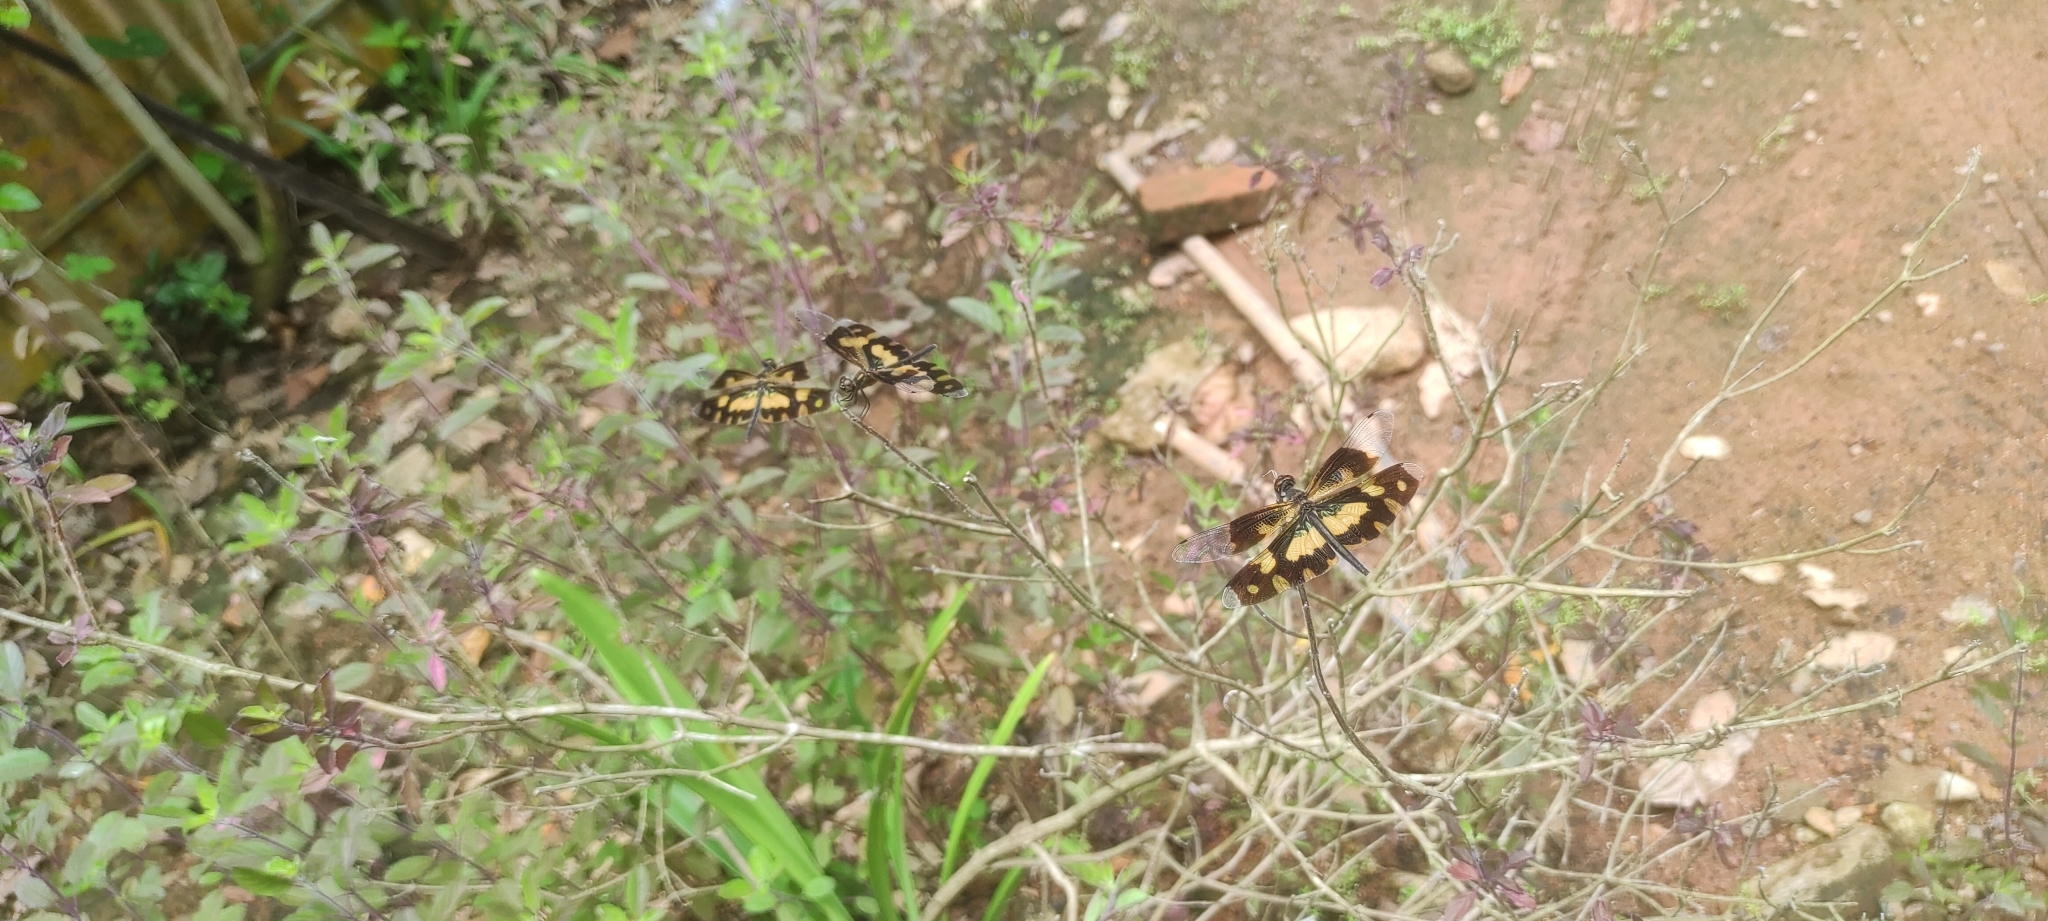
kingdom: Animalia
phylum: Arthropoda
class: Insecta
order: Odonata
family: Libellulidae
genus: Rhyothemis
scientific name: Rhyothemis variegata
